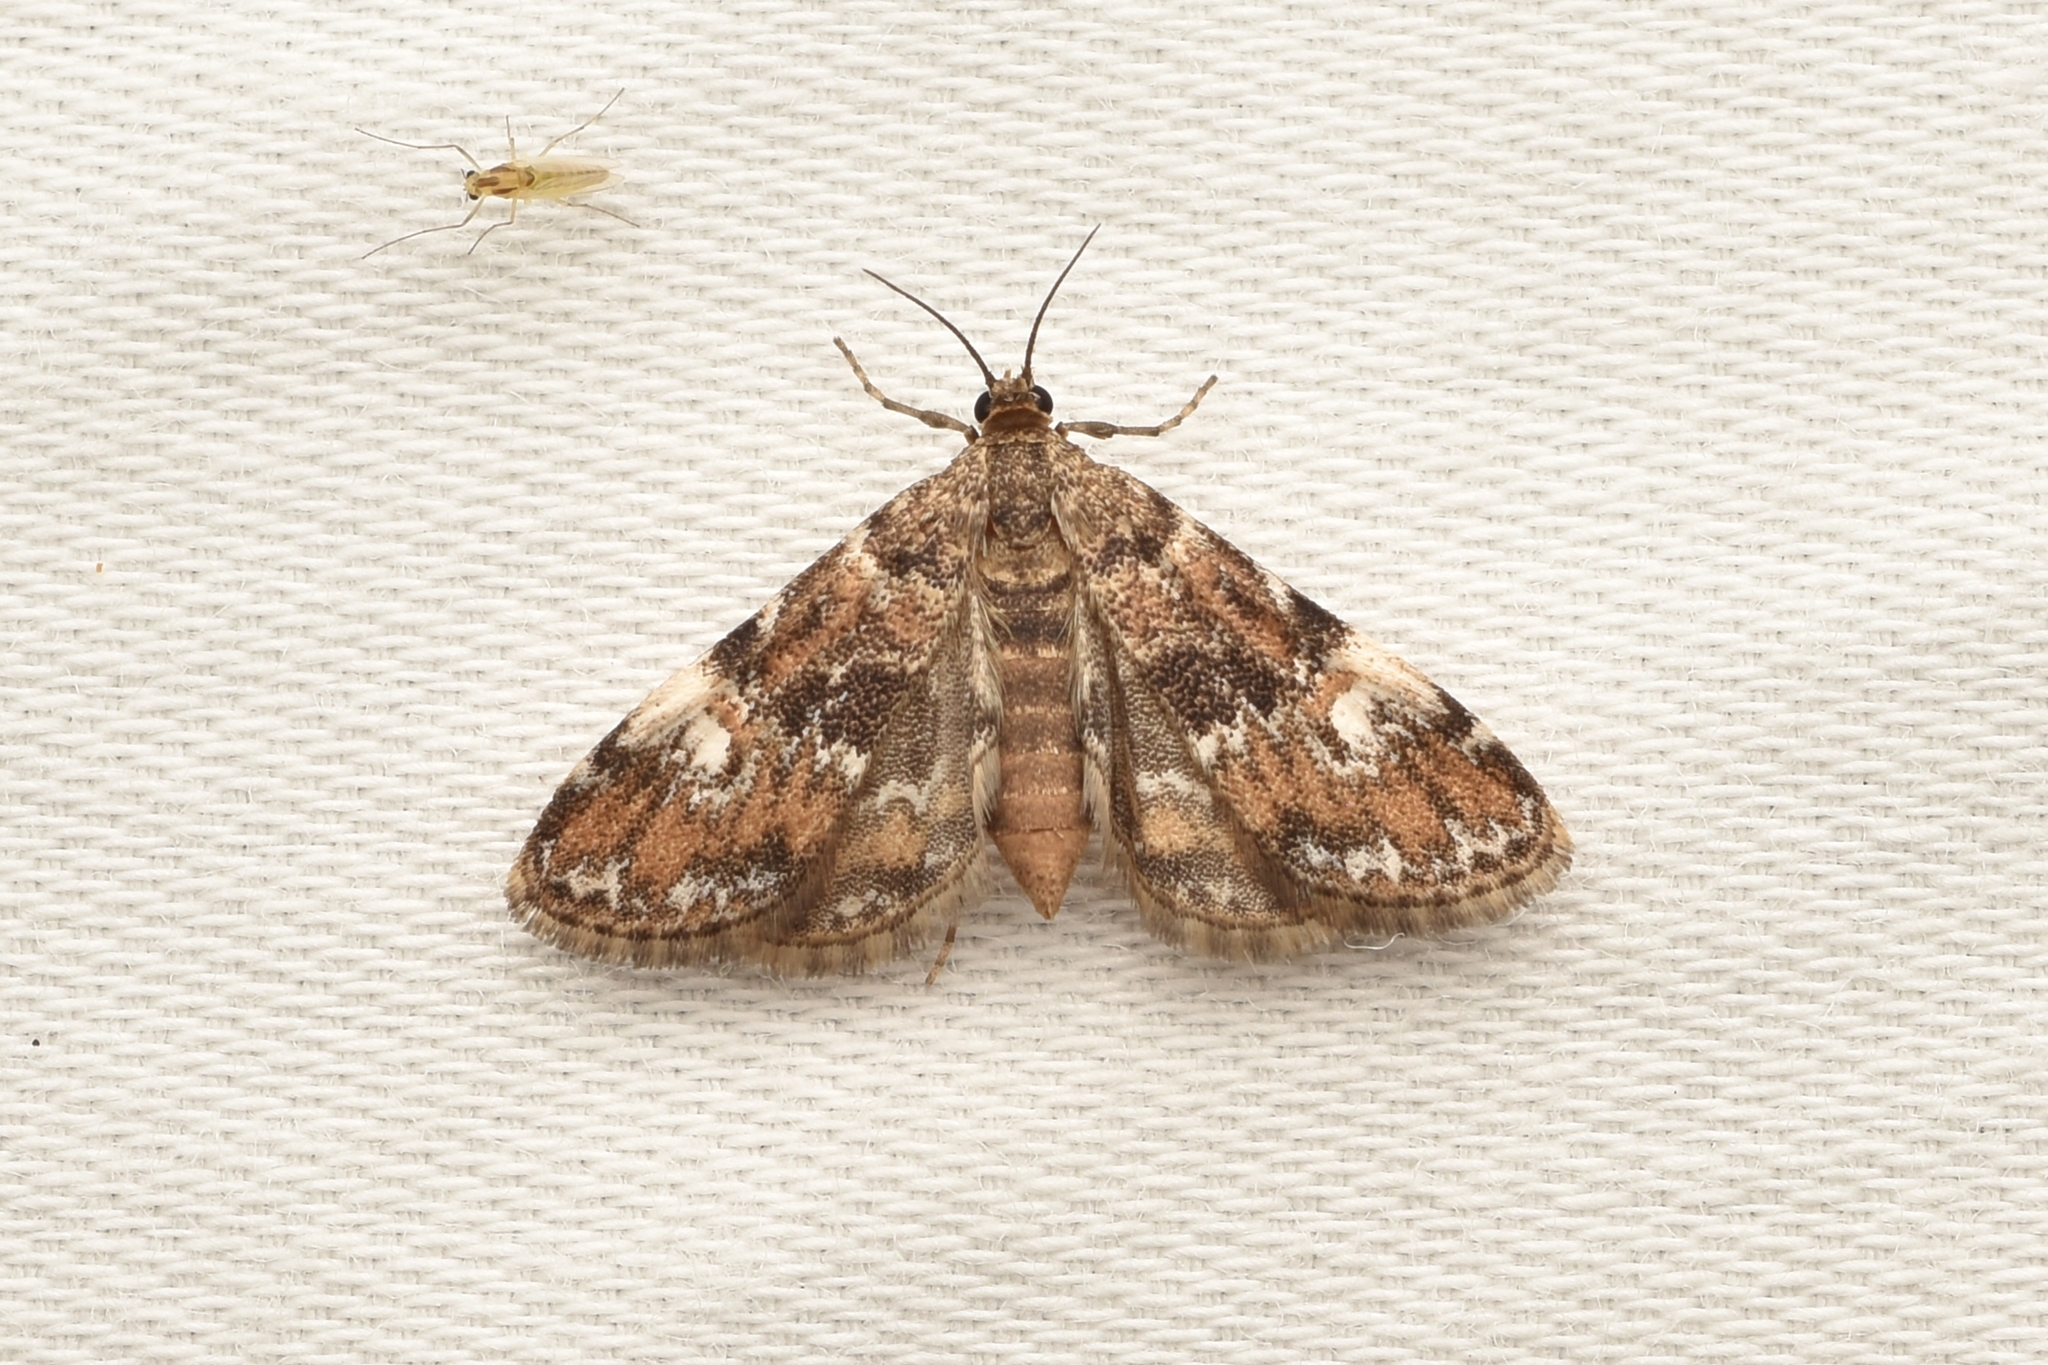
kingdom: Animalia
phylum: Arthropoda
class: Insecta
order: Lepidoptera
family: Crambidae
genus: Elophila
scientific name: Elophila obliteralis
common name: Waterlily leafcutter moth
